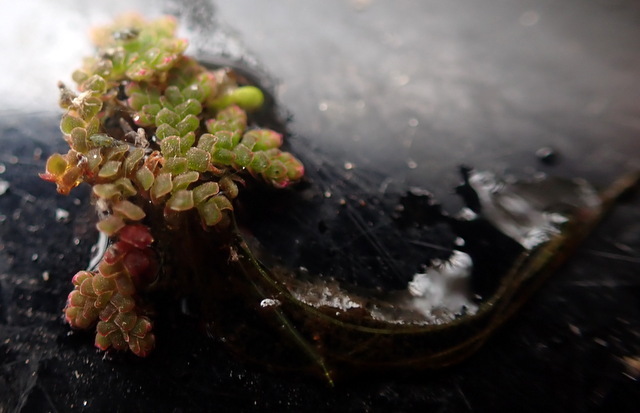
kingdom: Plantae
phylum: Tracheophyta
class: Polypodiopsida
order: Salviniales
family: Salviniaceae
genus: Azolla
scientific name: Azolla caroliniana
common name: Carolina mosquitofern
